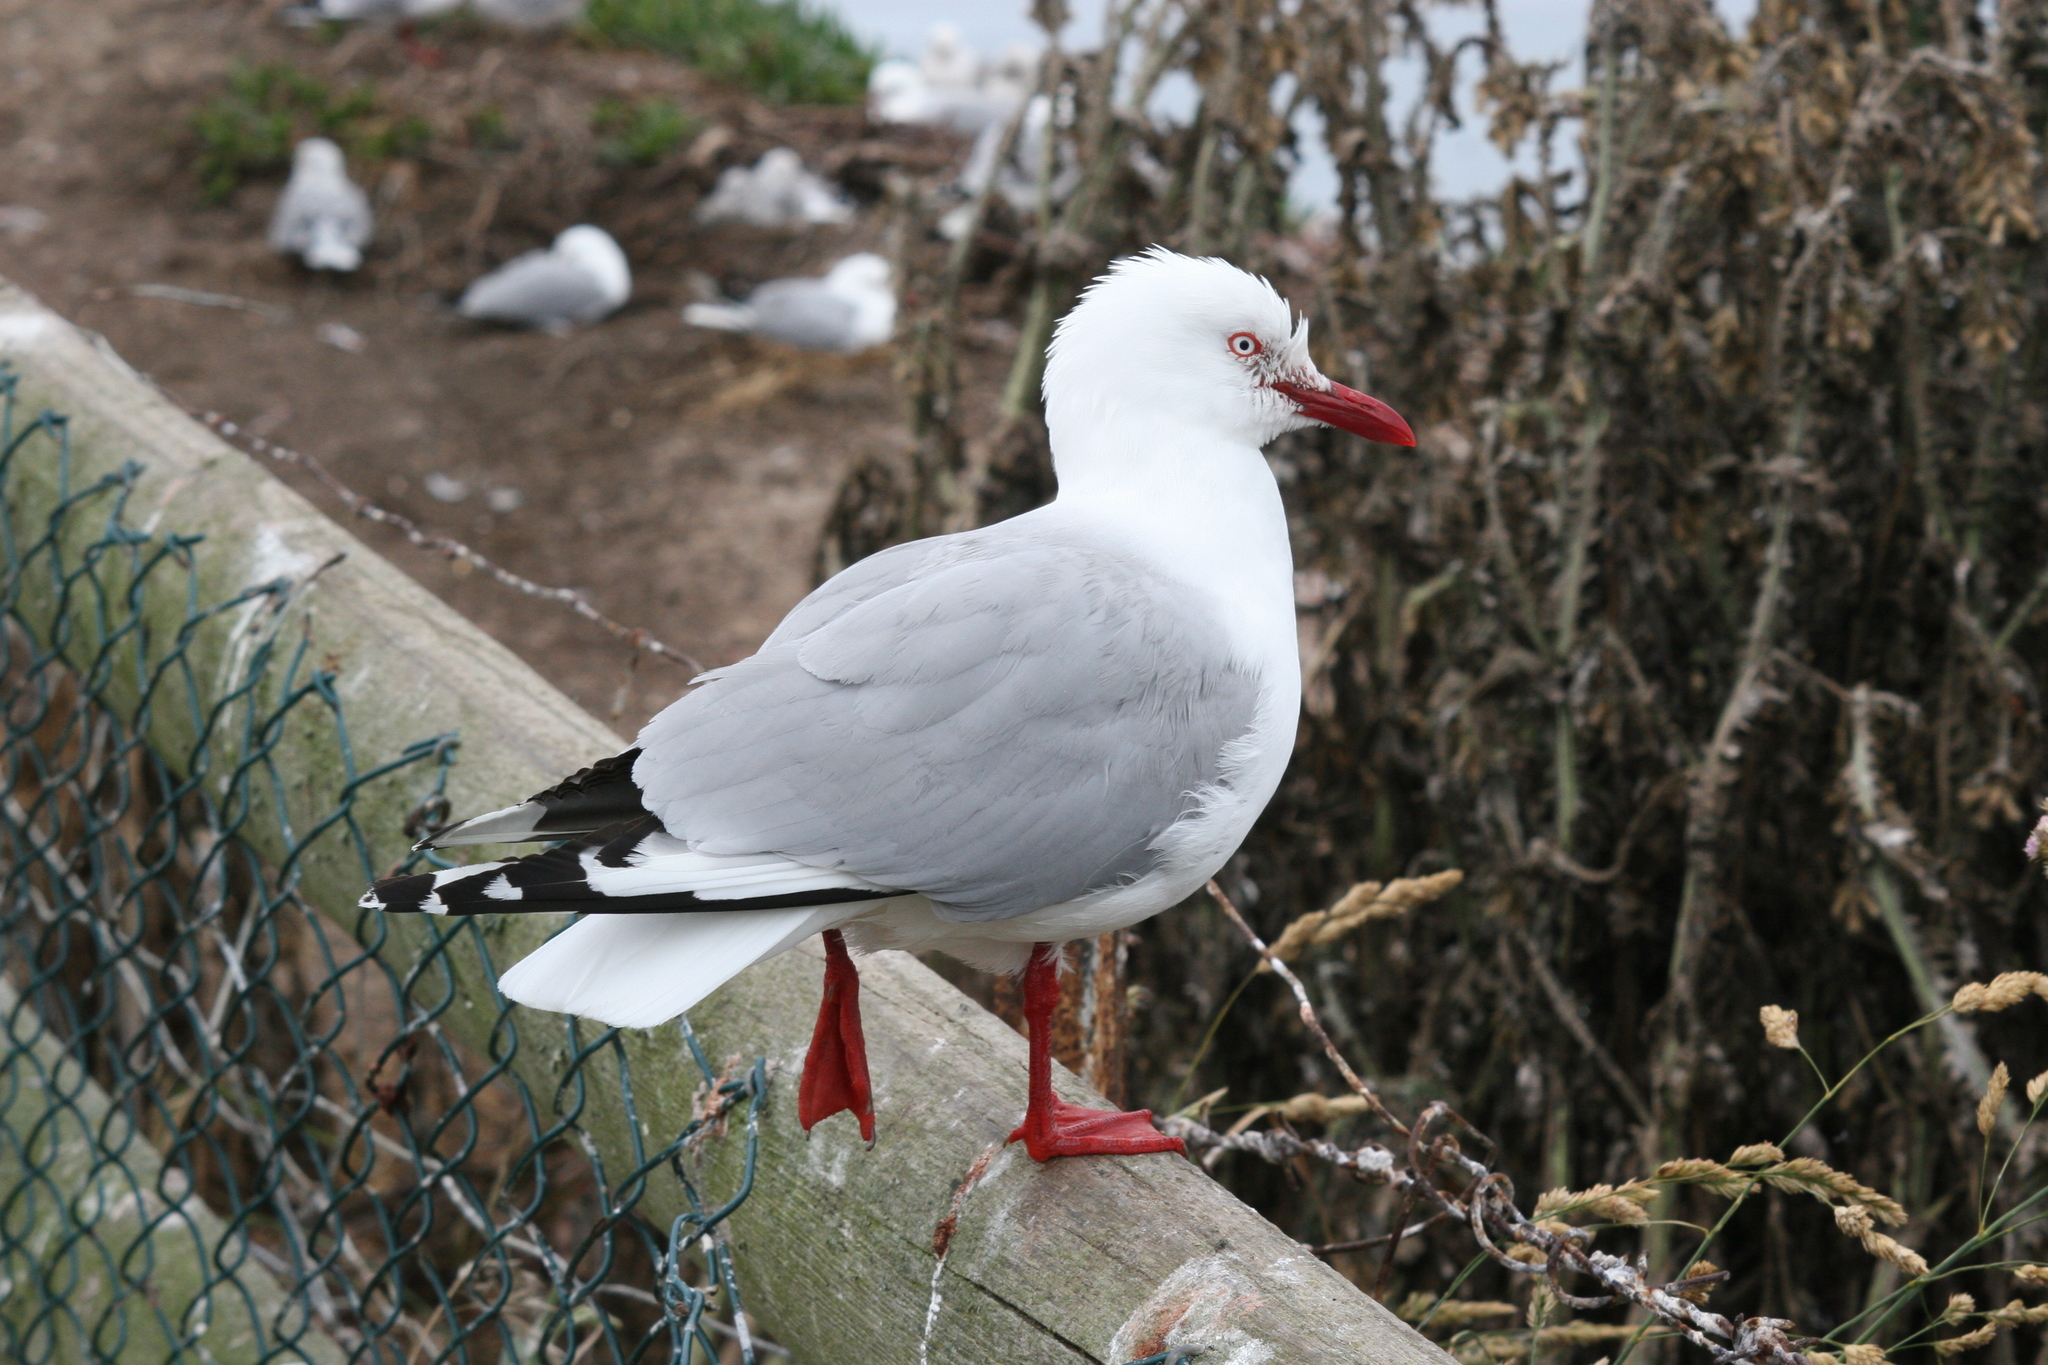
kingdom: Animalia
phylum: Chordata
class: Aves
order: Charadriiformes
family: Laridae
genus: Chroicocephalus
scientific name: Chroicocephalus novaehollandiae
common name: Silver gull
